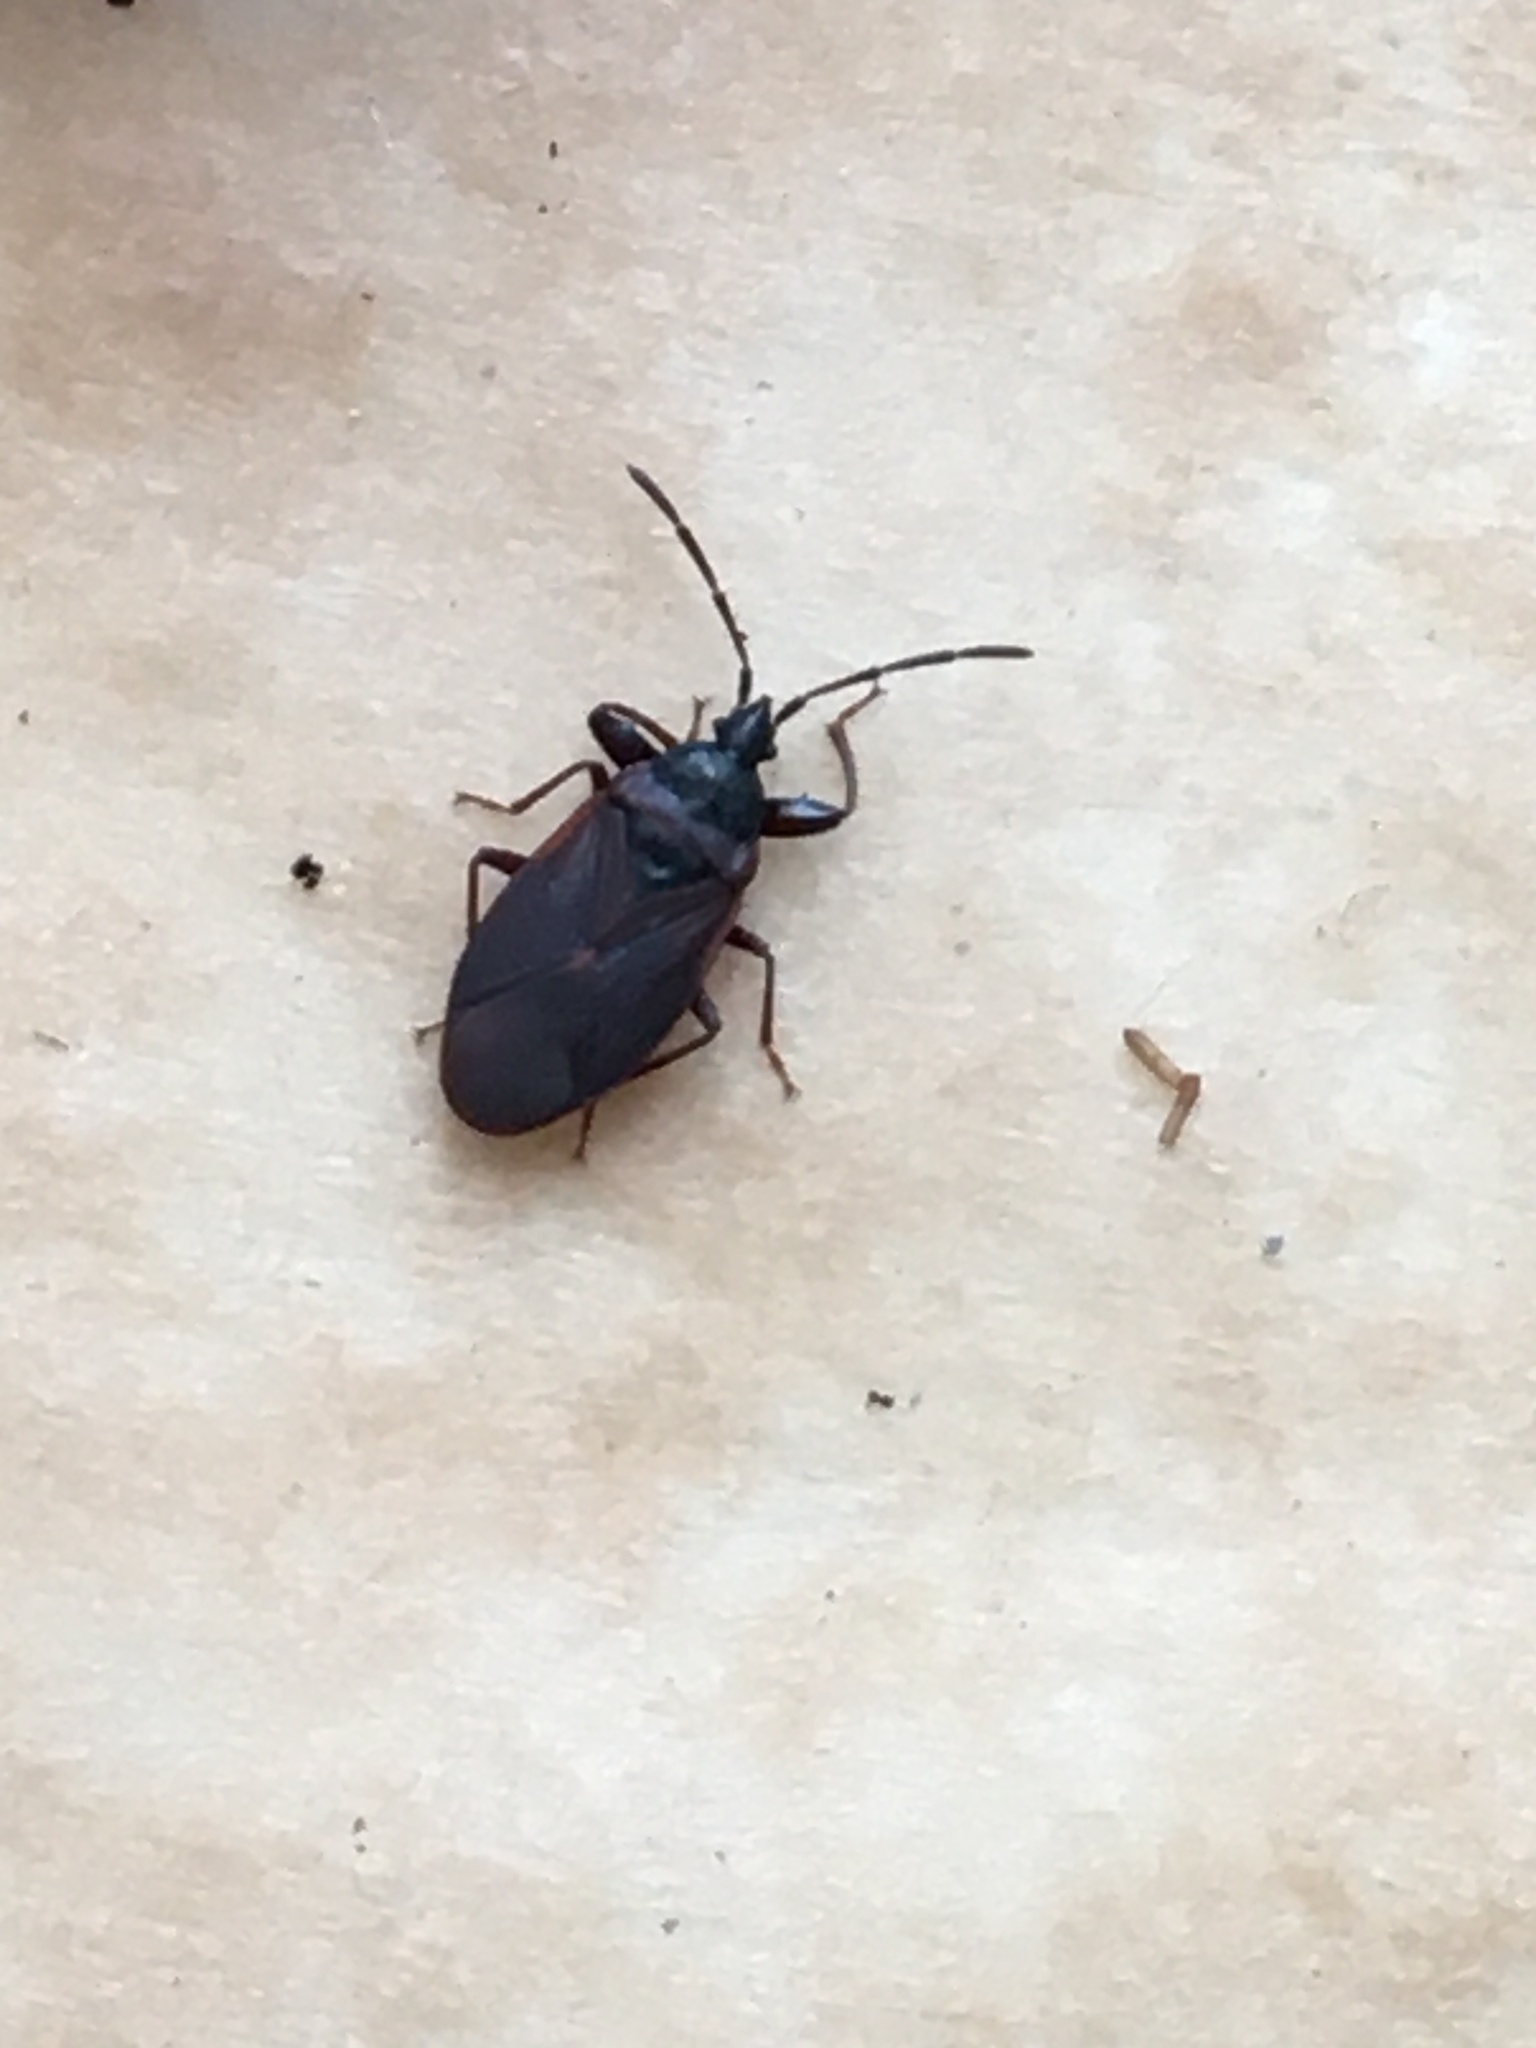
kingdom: Animalia
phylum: Arthropoda
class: Insecta
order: Hemiptera
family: Rhyparochromidae
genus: Gastrodes
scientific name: Gastrodes grossipes
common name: Pine cone bug
